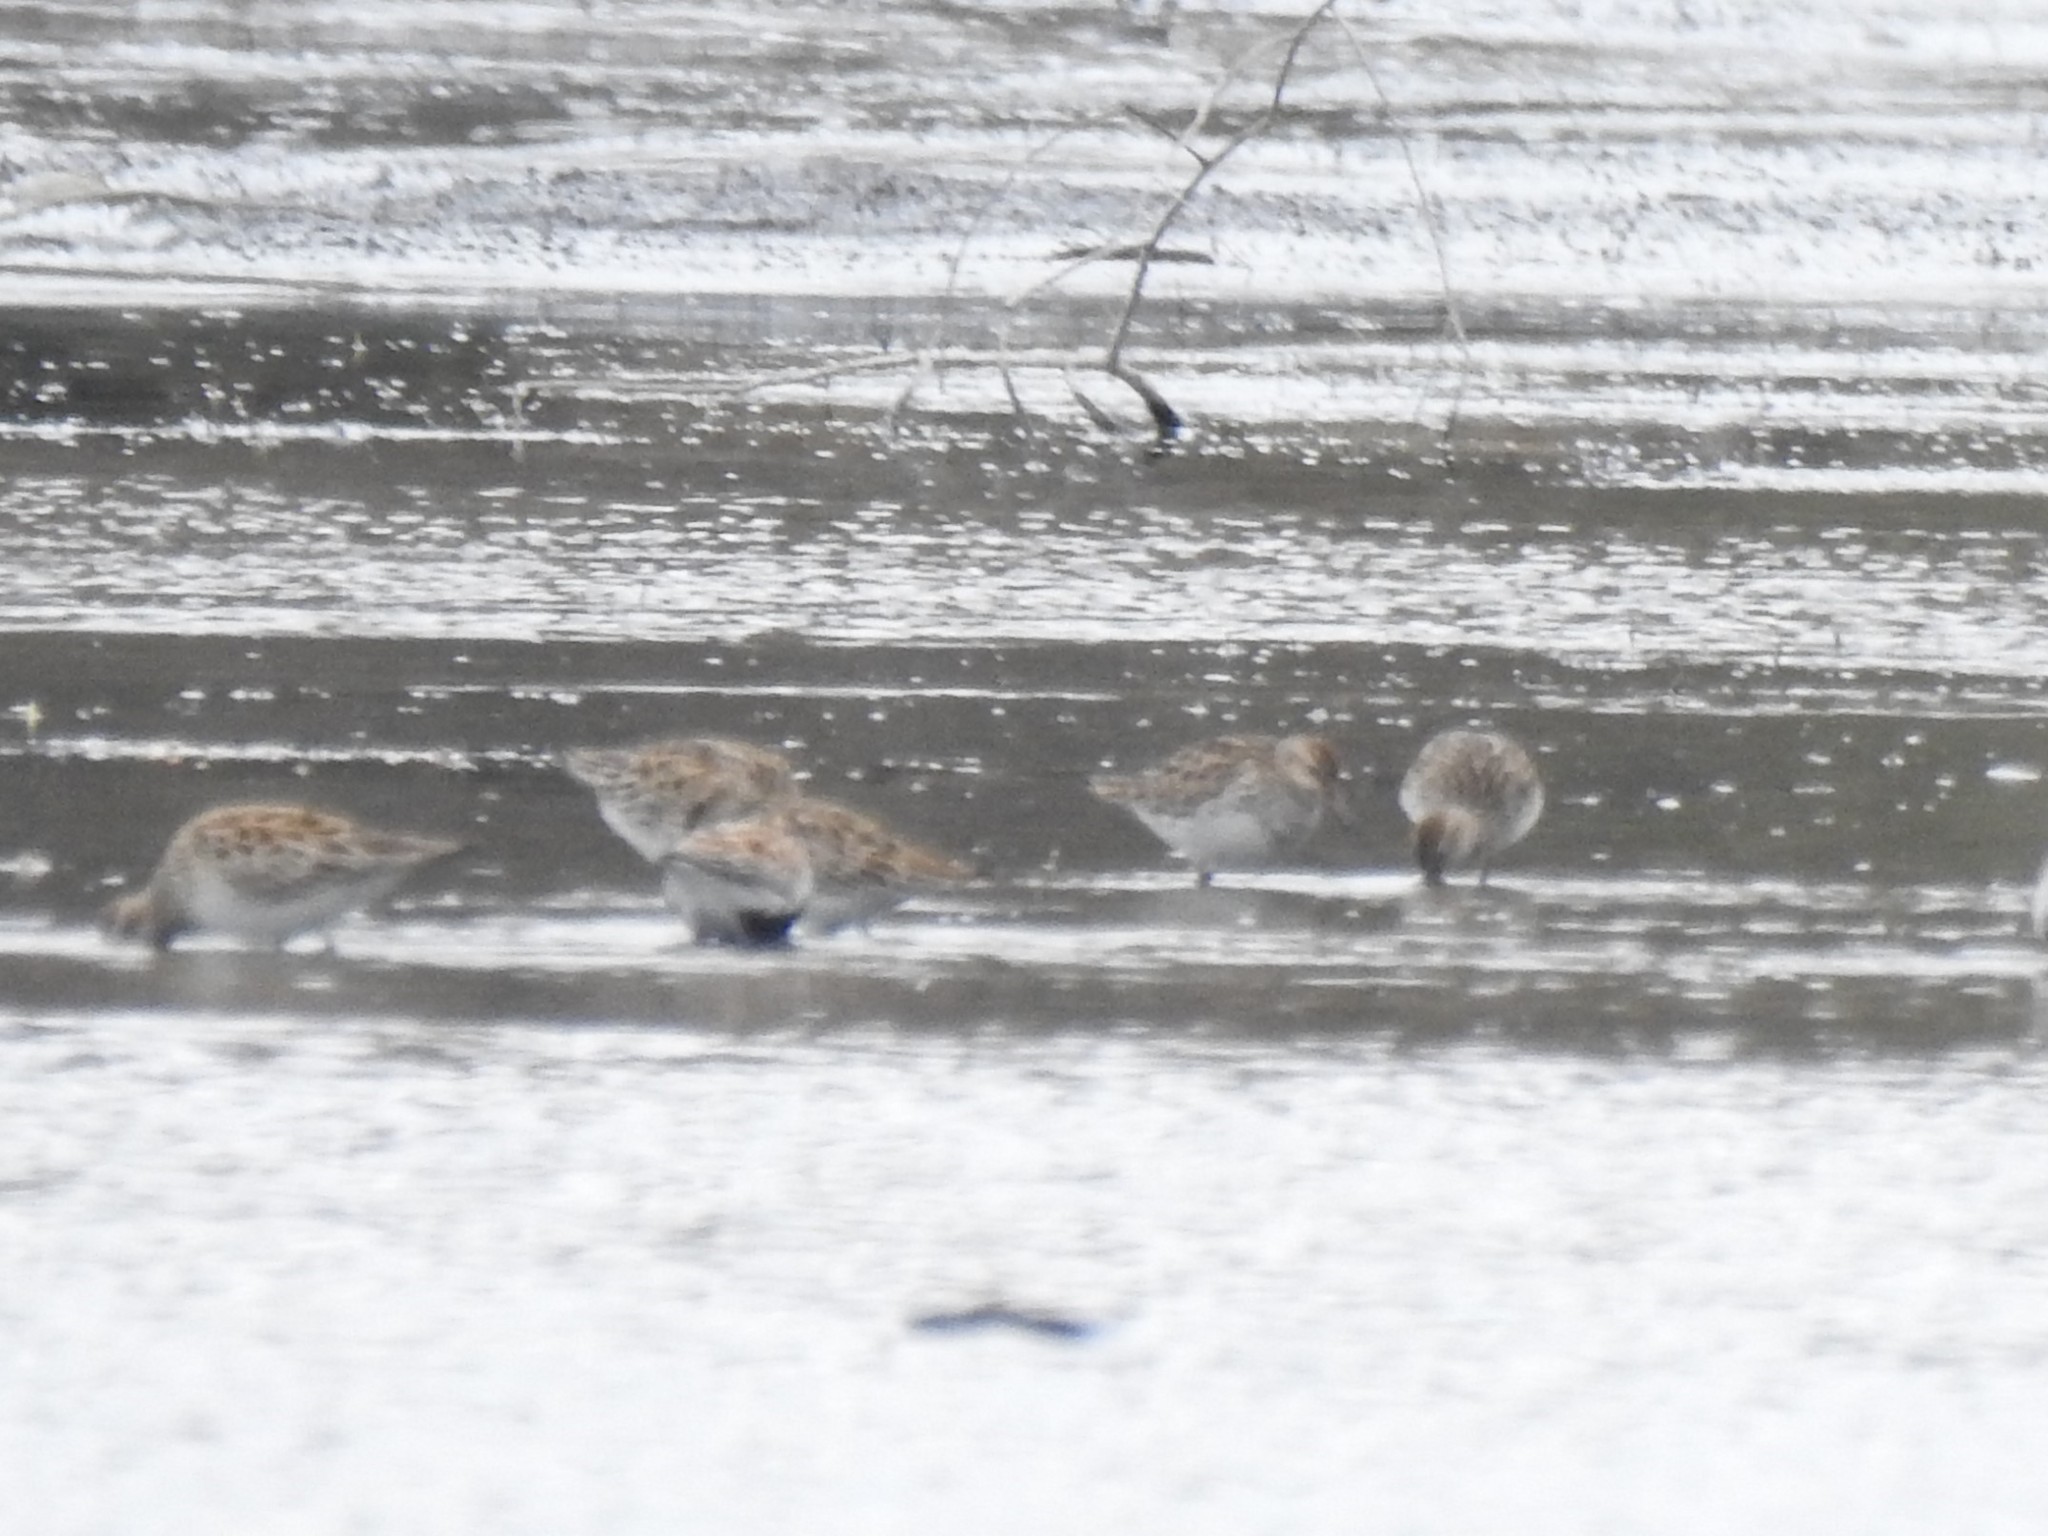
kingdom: Animalia
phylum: Chordata
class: Aves
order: Charadriiformes
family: Scolopacidae
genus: Calidris
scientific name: Calidris melanotos
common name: Pectoral sandpiper
